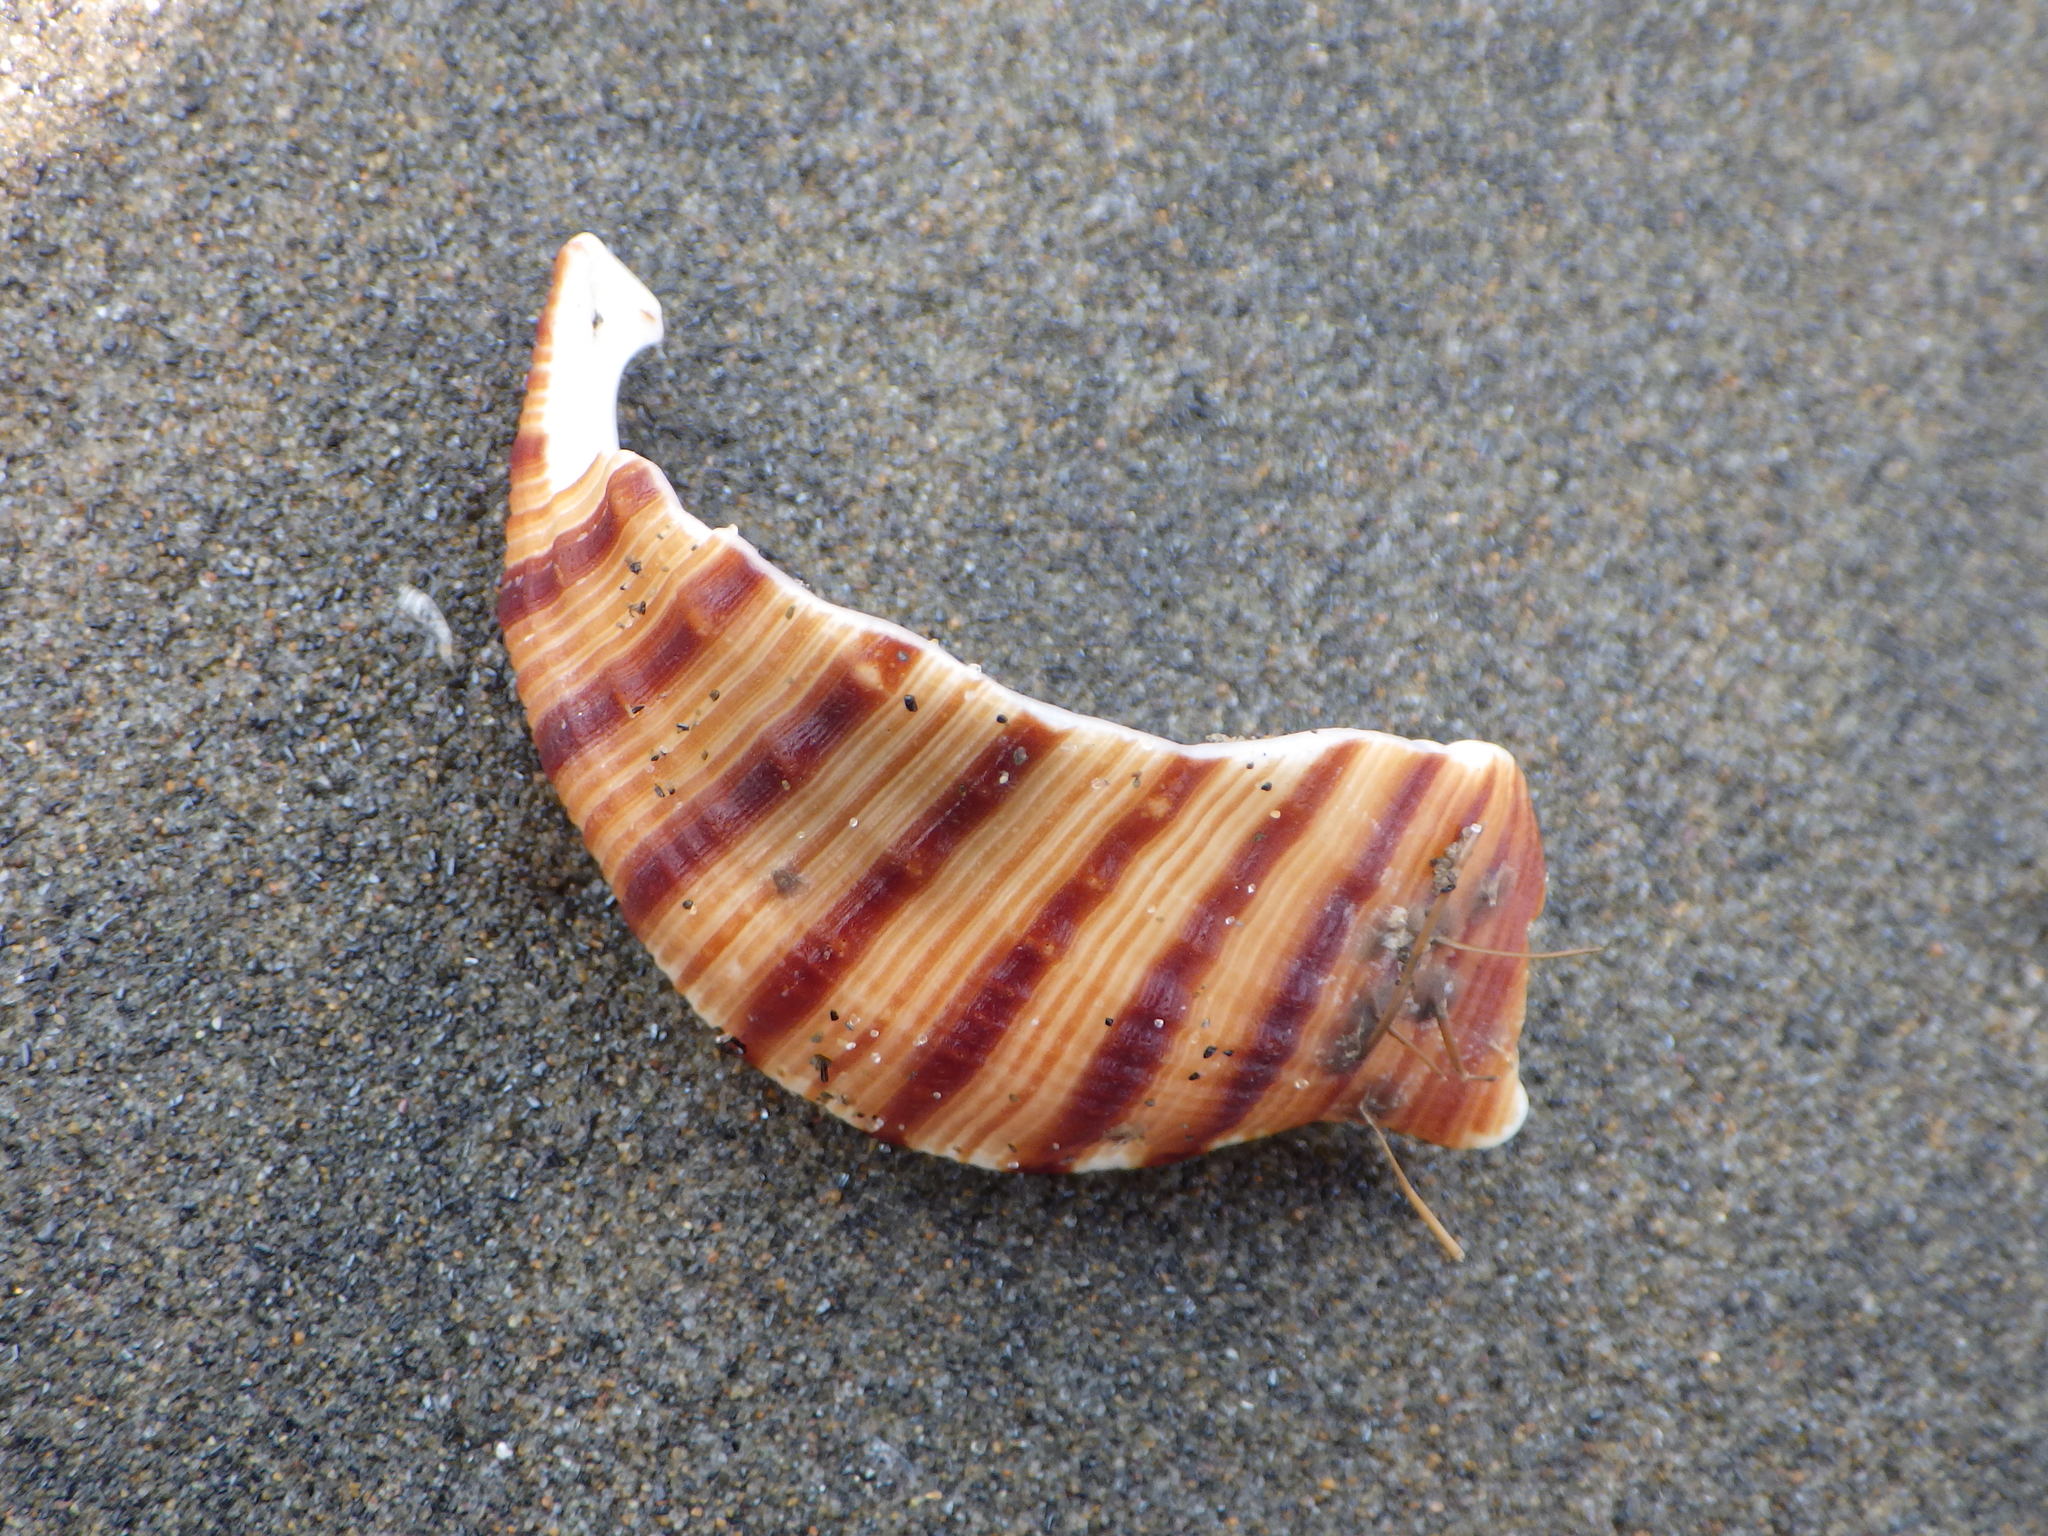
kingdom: Animalia
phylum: Mollusca
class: Gastropoda
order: Littorinimorpha
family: Cymatiidae
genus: Argobuccinum
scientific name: Argobuccinum pustulosum
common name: Pustular triton
